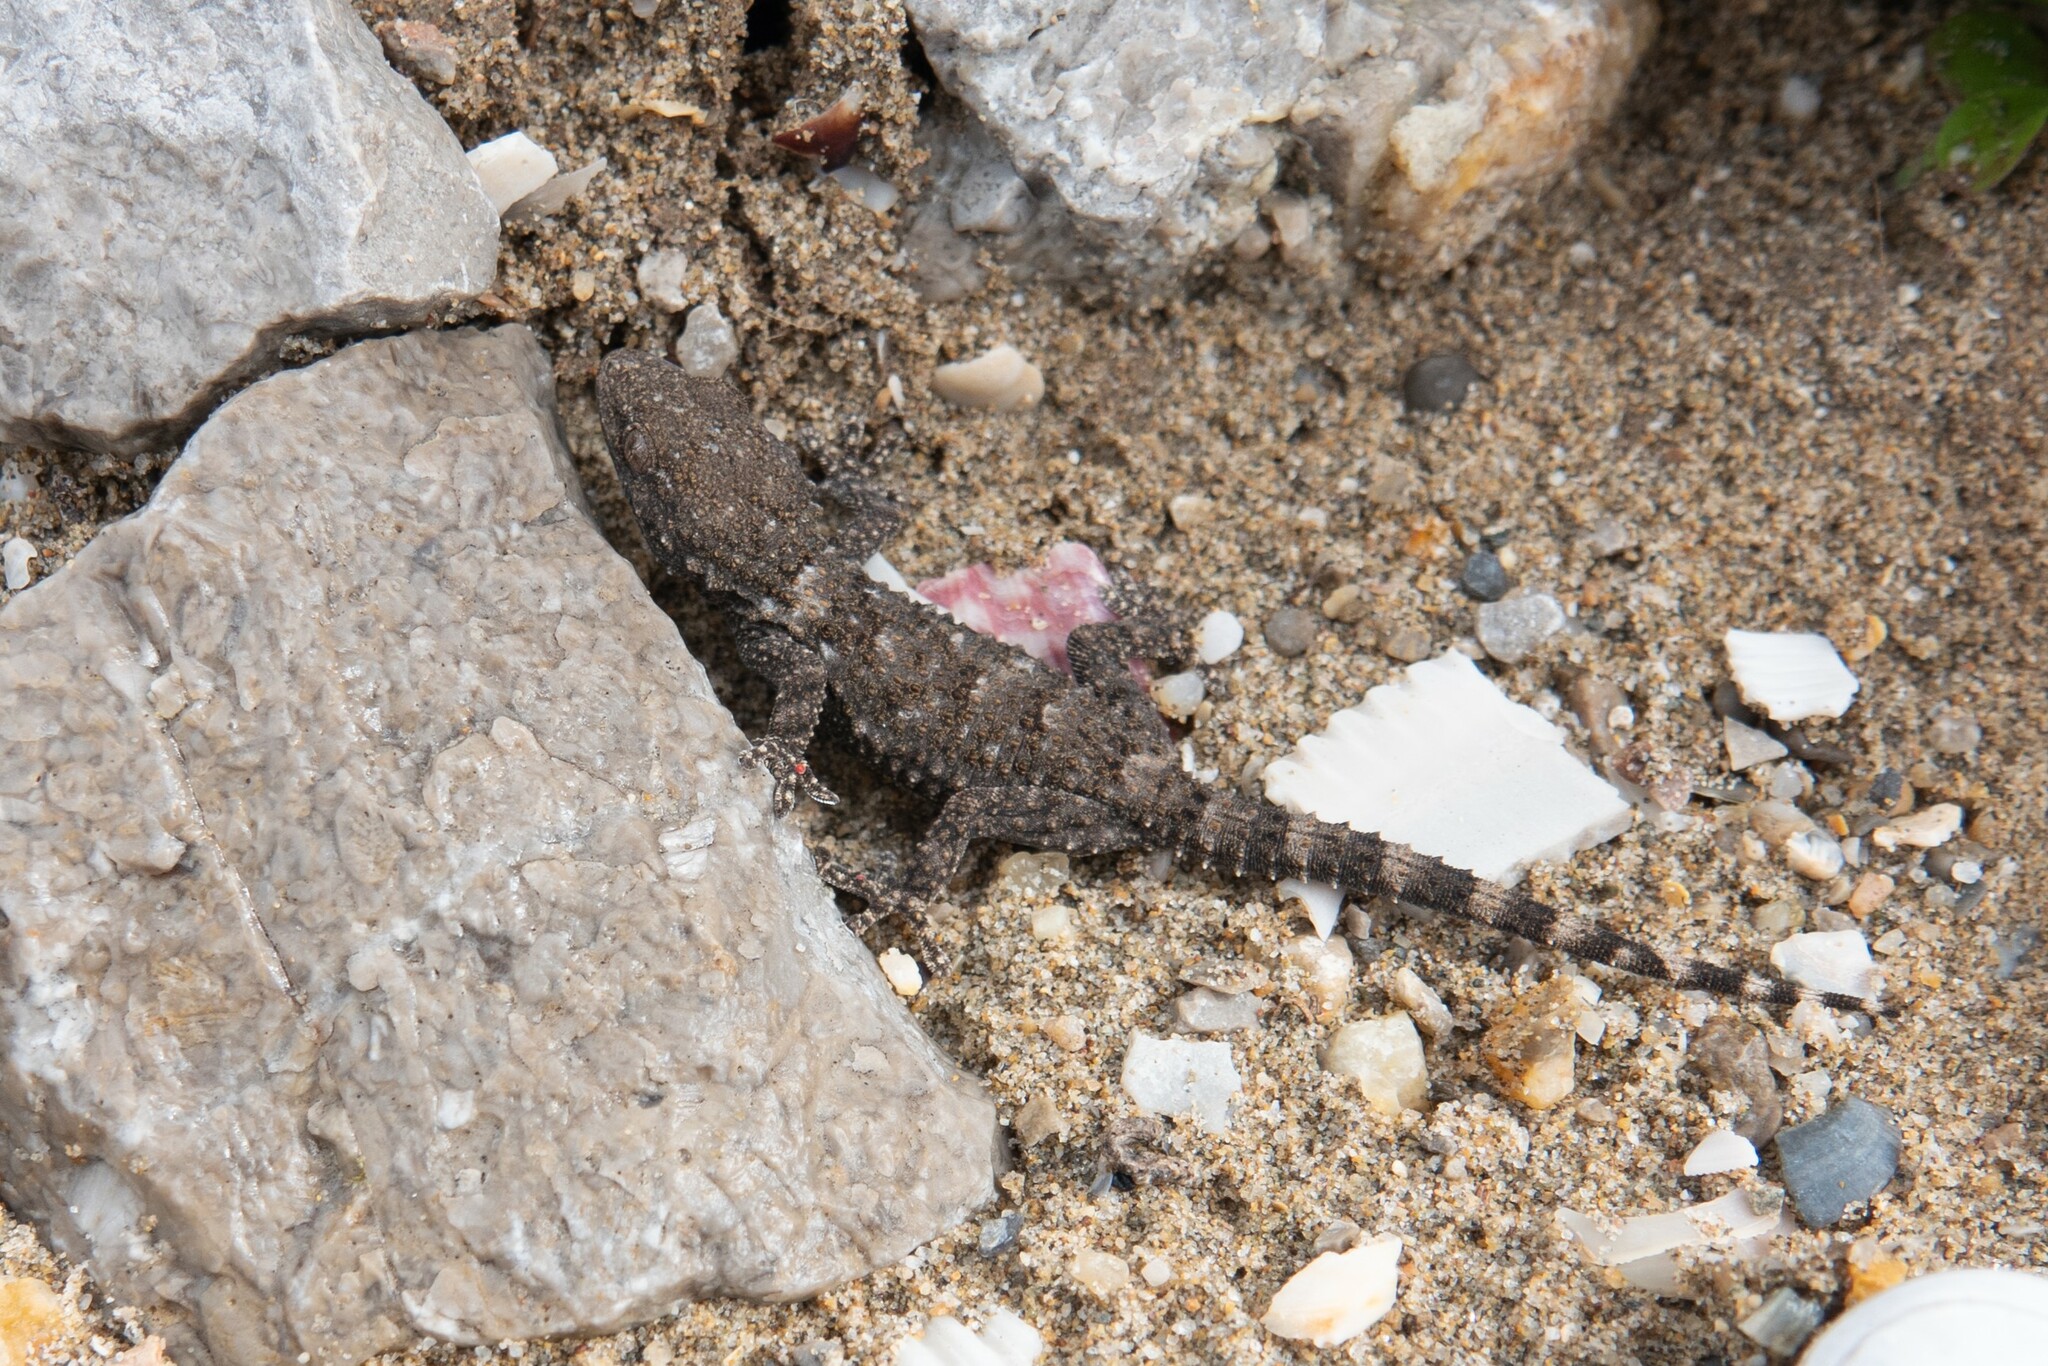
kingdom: Animalia
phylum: Chordata
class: Squamata
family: Phyllodactylidae
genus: Tarentola
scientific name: Tarentola mauritanica
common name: Moorish gecko
